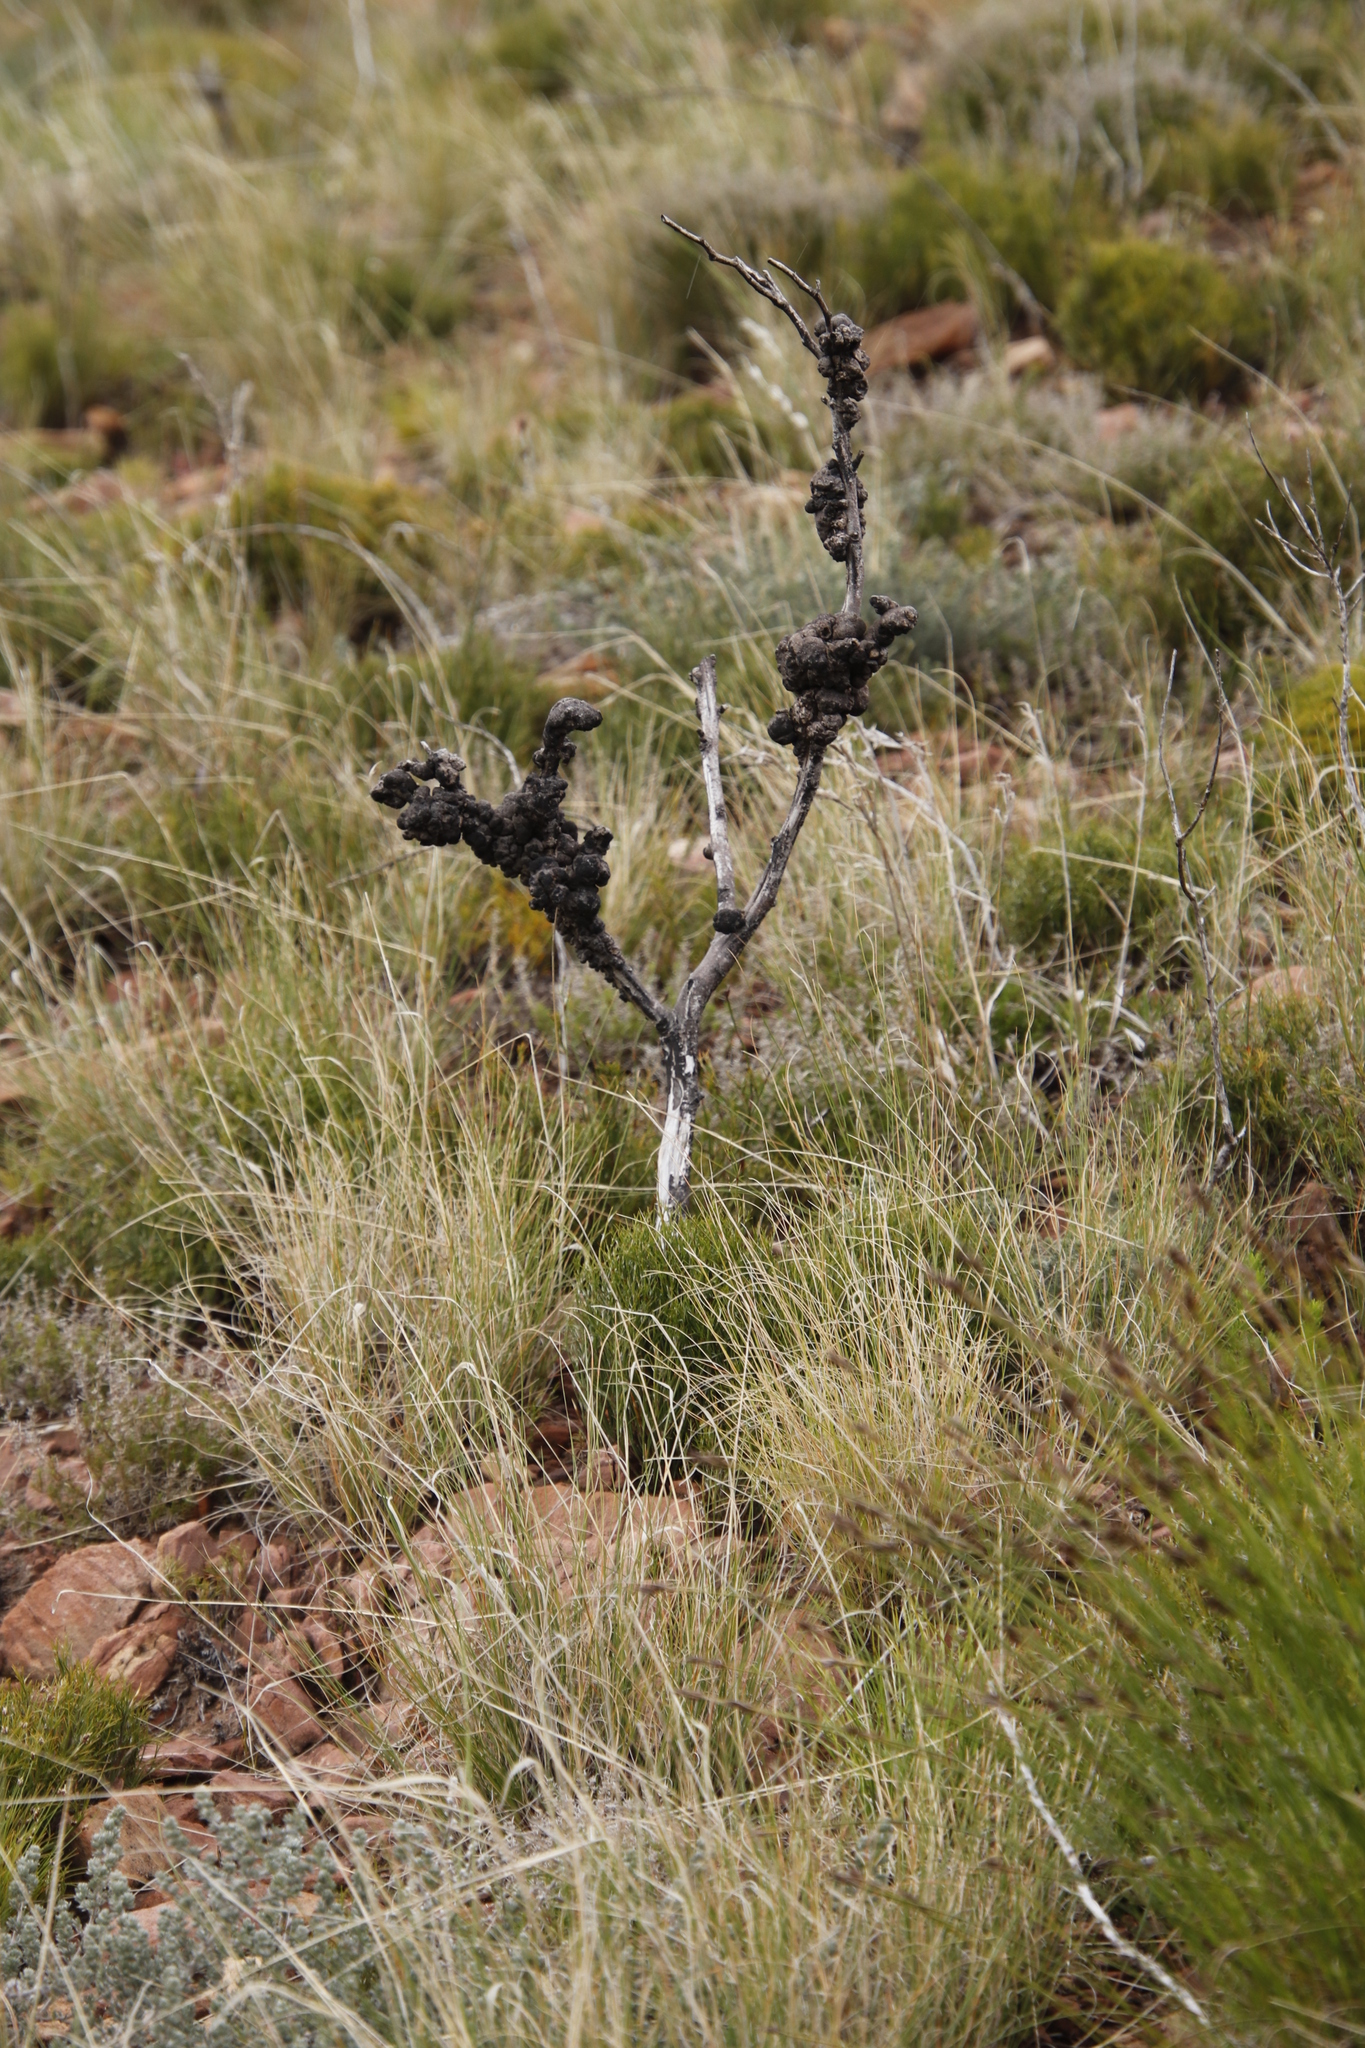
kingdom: Fungi
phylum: Basidiomycota
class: Pucciniomycetes
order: Pucciniales
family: Uromycladiaceae
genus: Uromycladium
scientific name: Uromycladium morrisii
